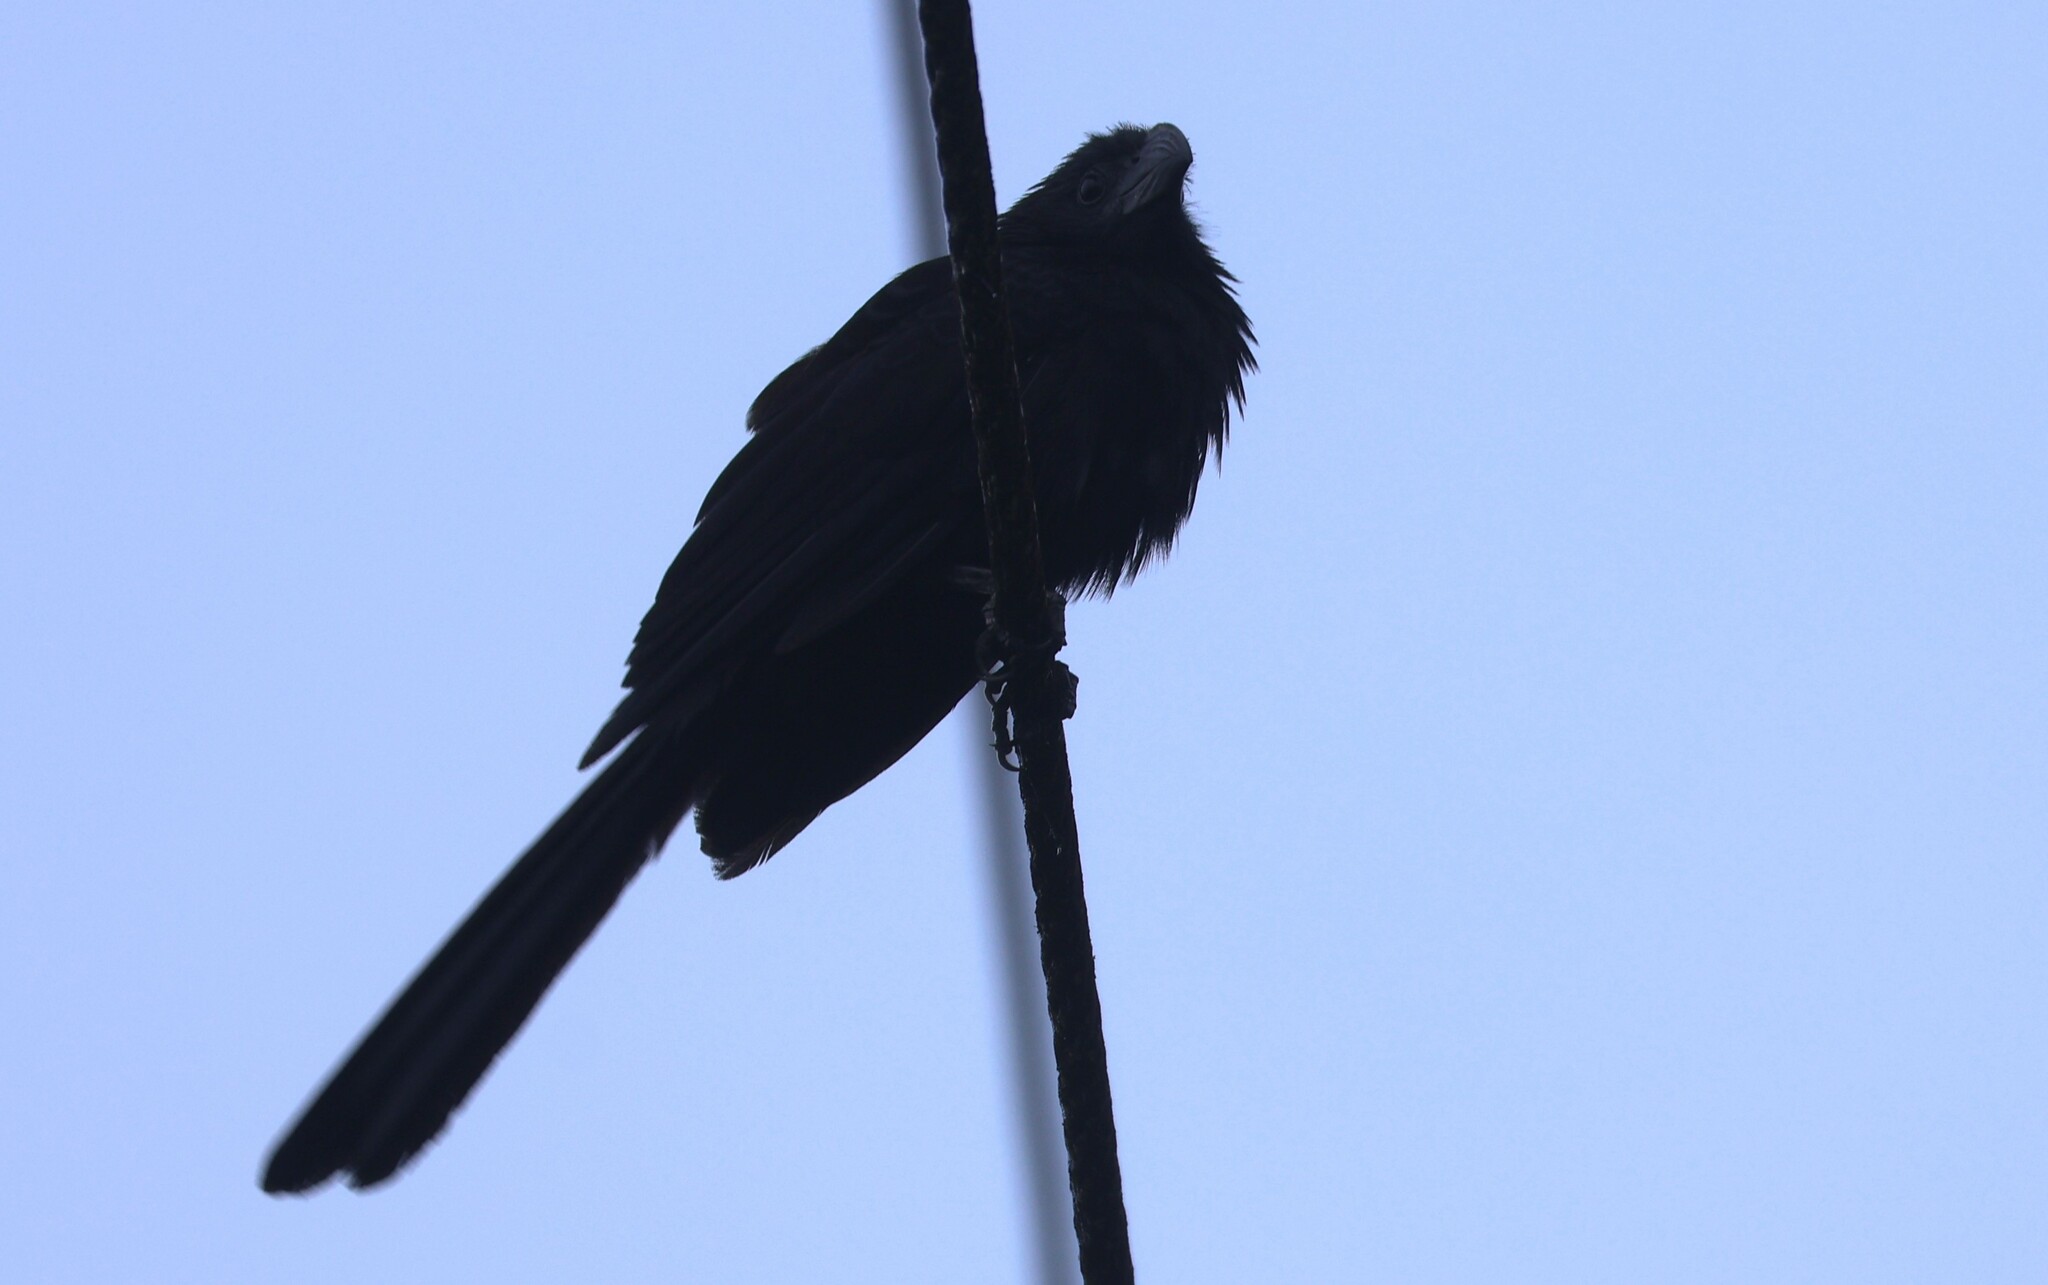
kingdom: Animalia
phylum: Chordata
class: Aves
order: Cuculiformes
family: Cuculidae
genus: Crotophaga
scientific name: Crotophaga sulcirostris
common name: Groove-billed ani
